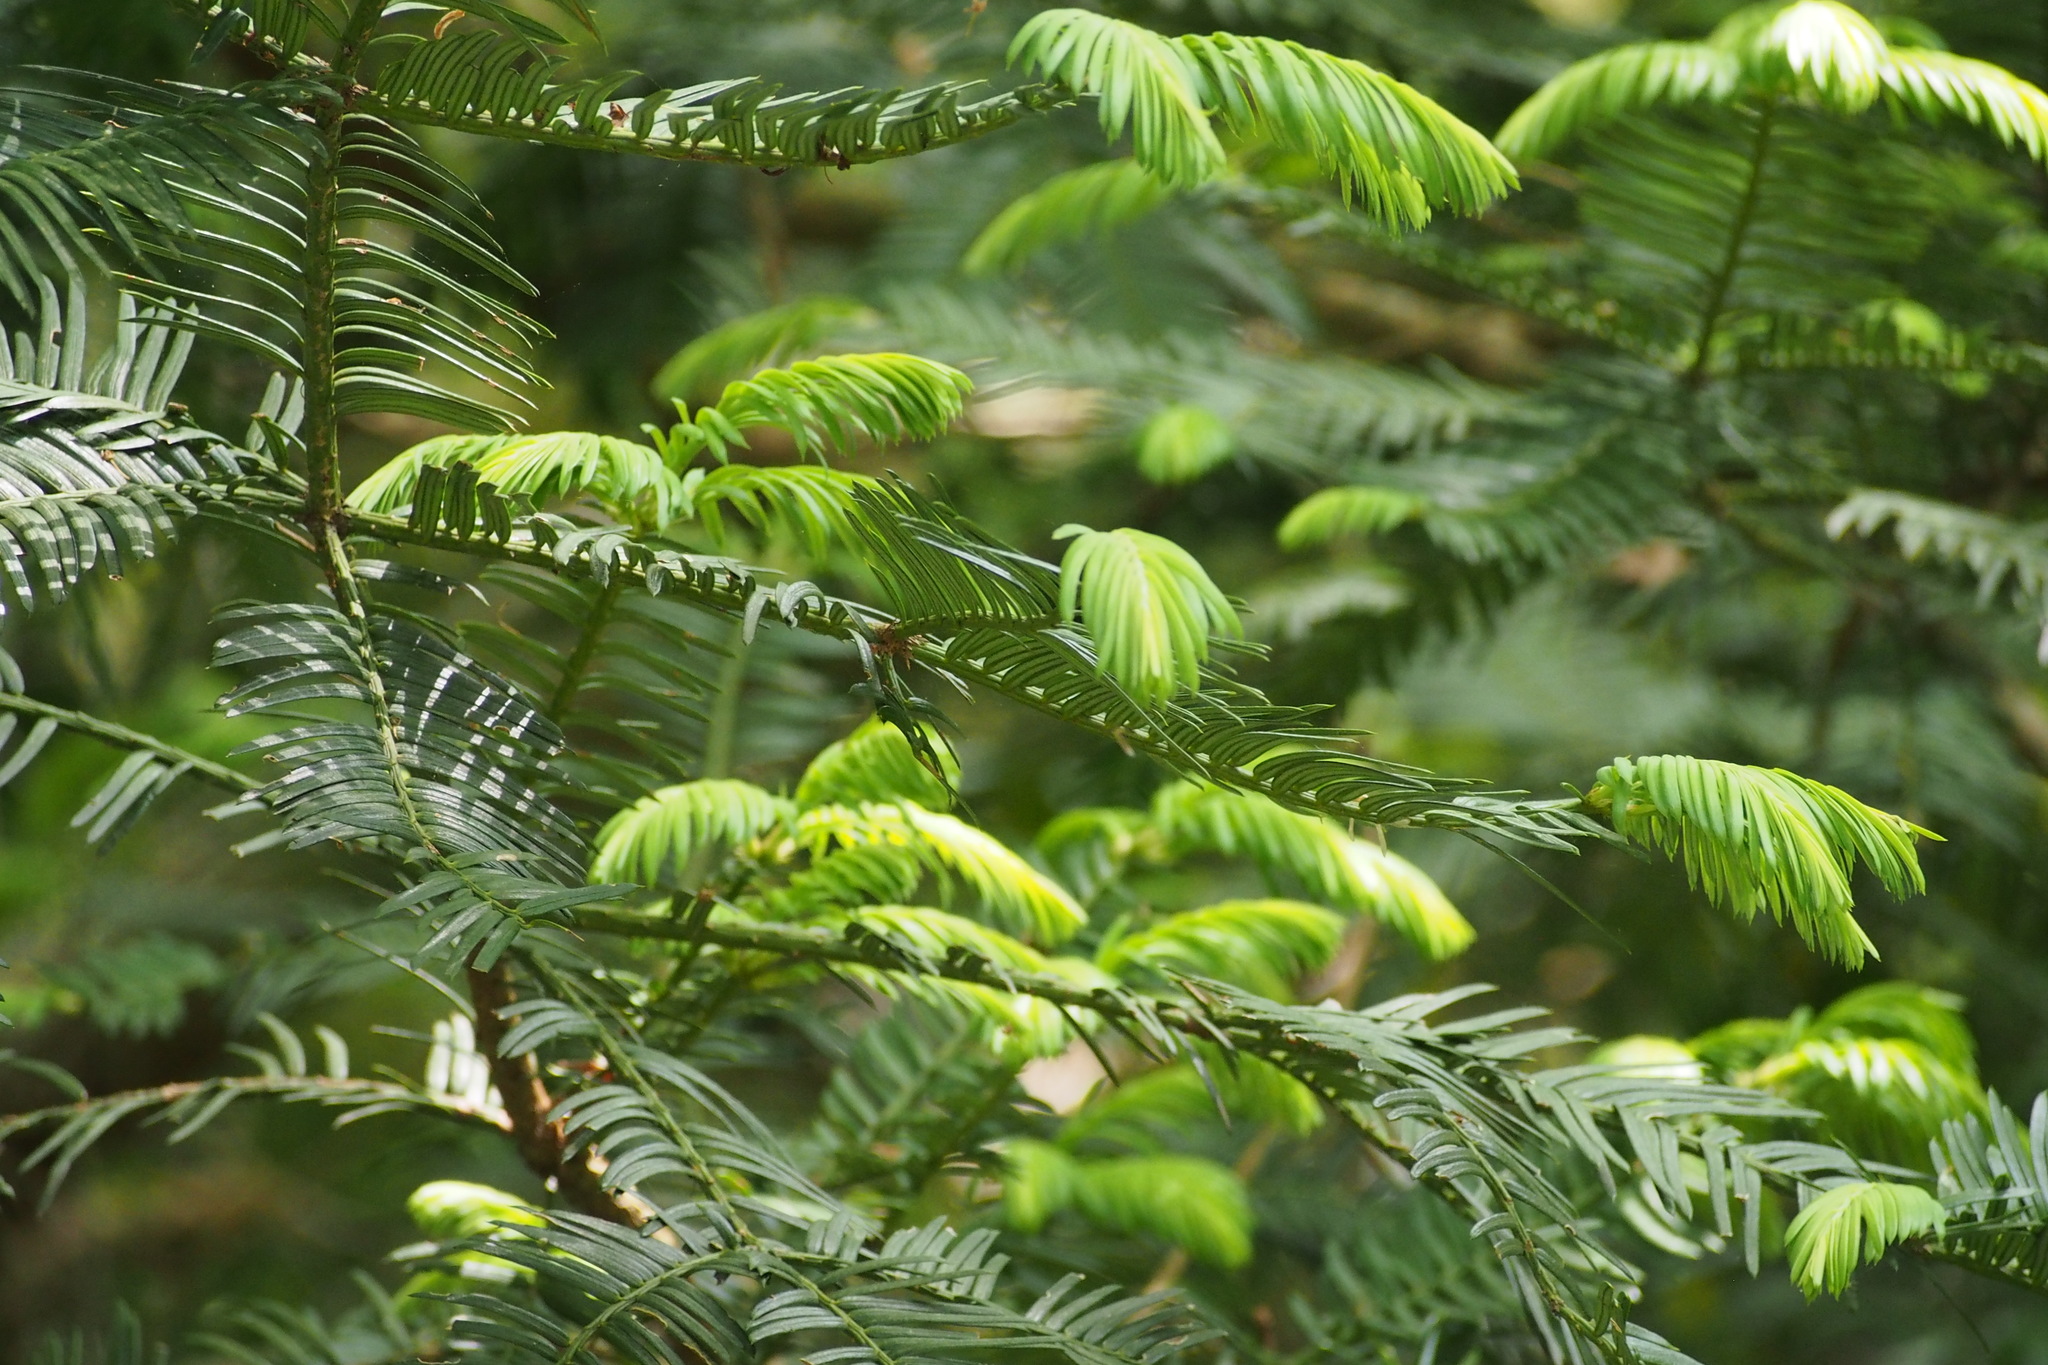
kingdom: Plantae
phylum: Tracheophyta
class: Pinopsida
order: Pinales
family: Cephalotaxaceae
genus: Cephalotaxus
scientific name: Cephalotaxus harringtonia
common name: Japanese plum-yew
